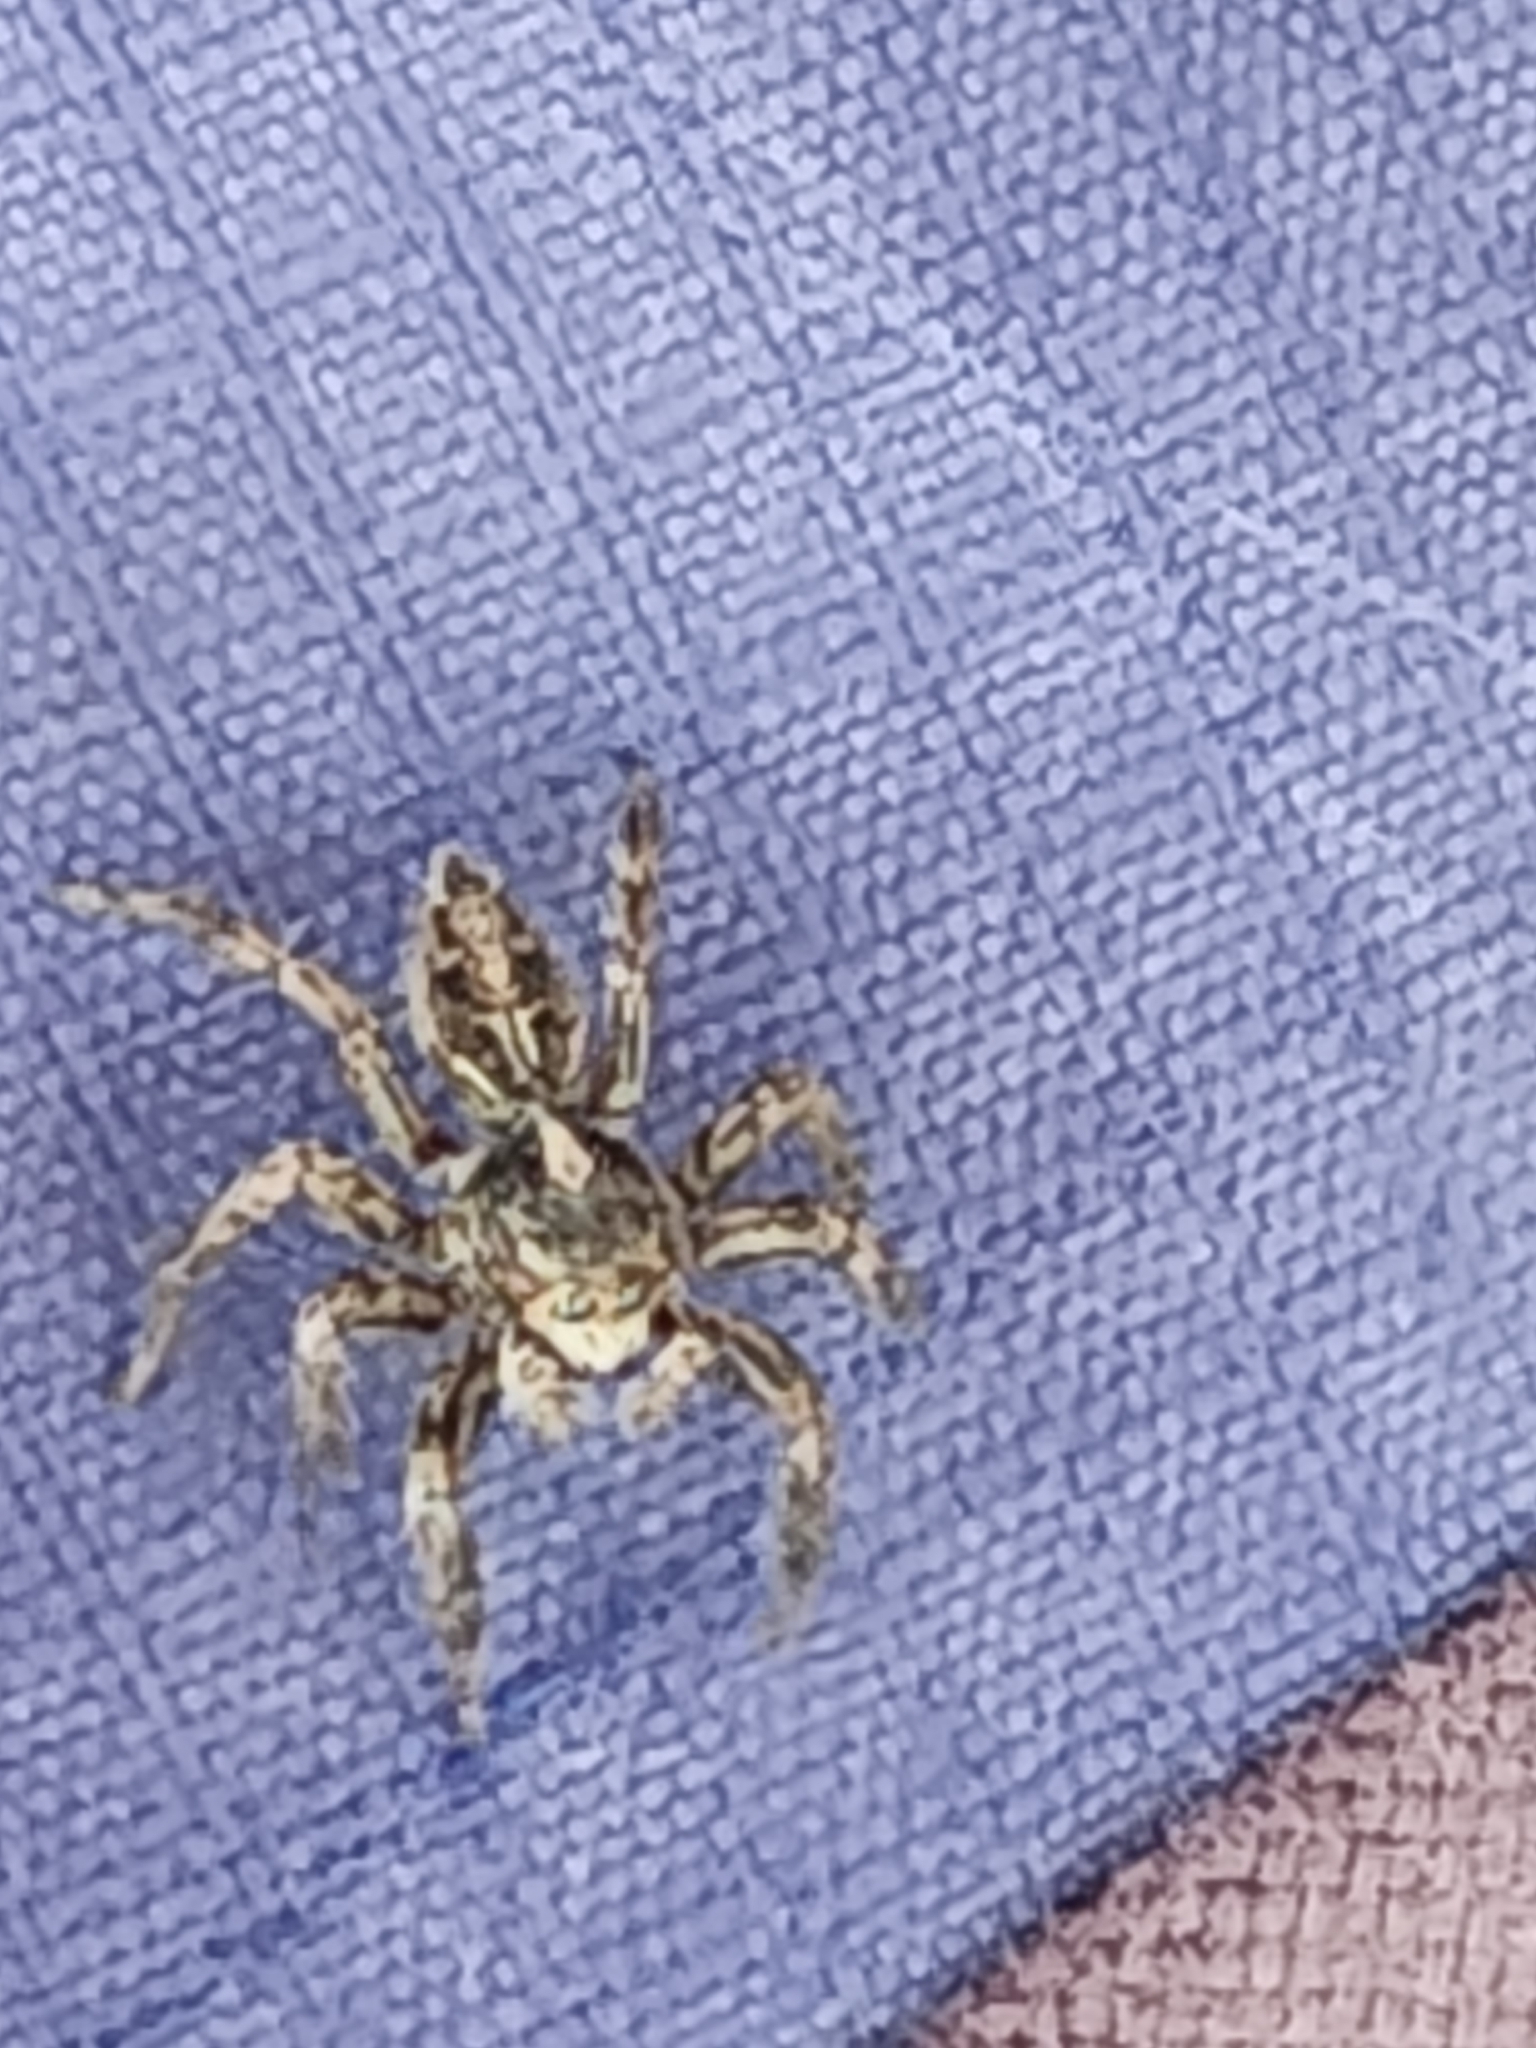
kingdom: Animalia
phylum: Arthropoda
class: Arachnida
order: Araneae
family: Salticidae
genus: Plexippus
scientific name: Plexippus paykulli
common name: Pantropical jumper
